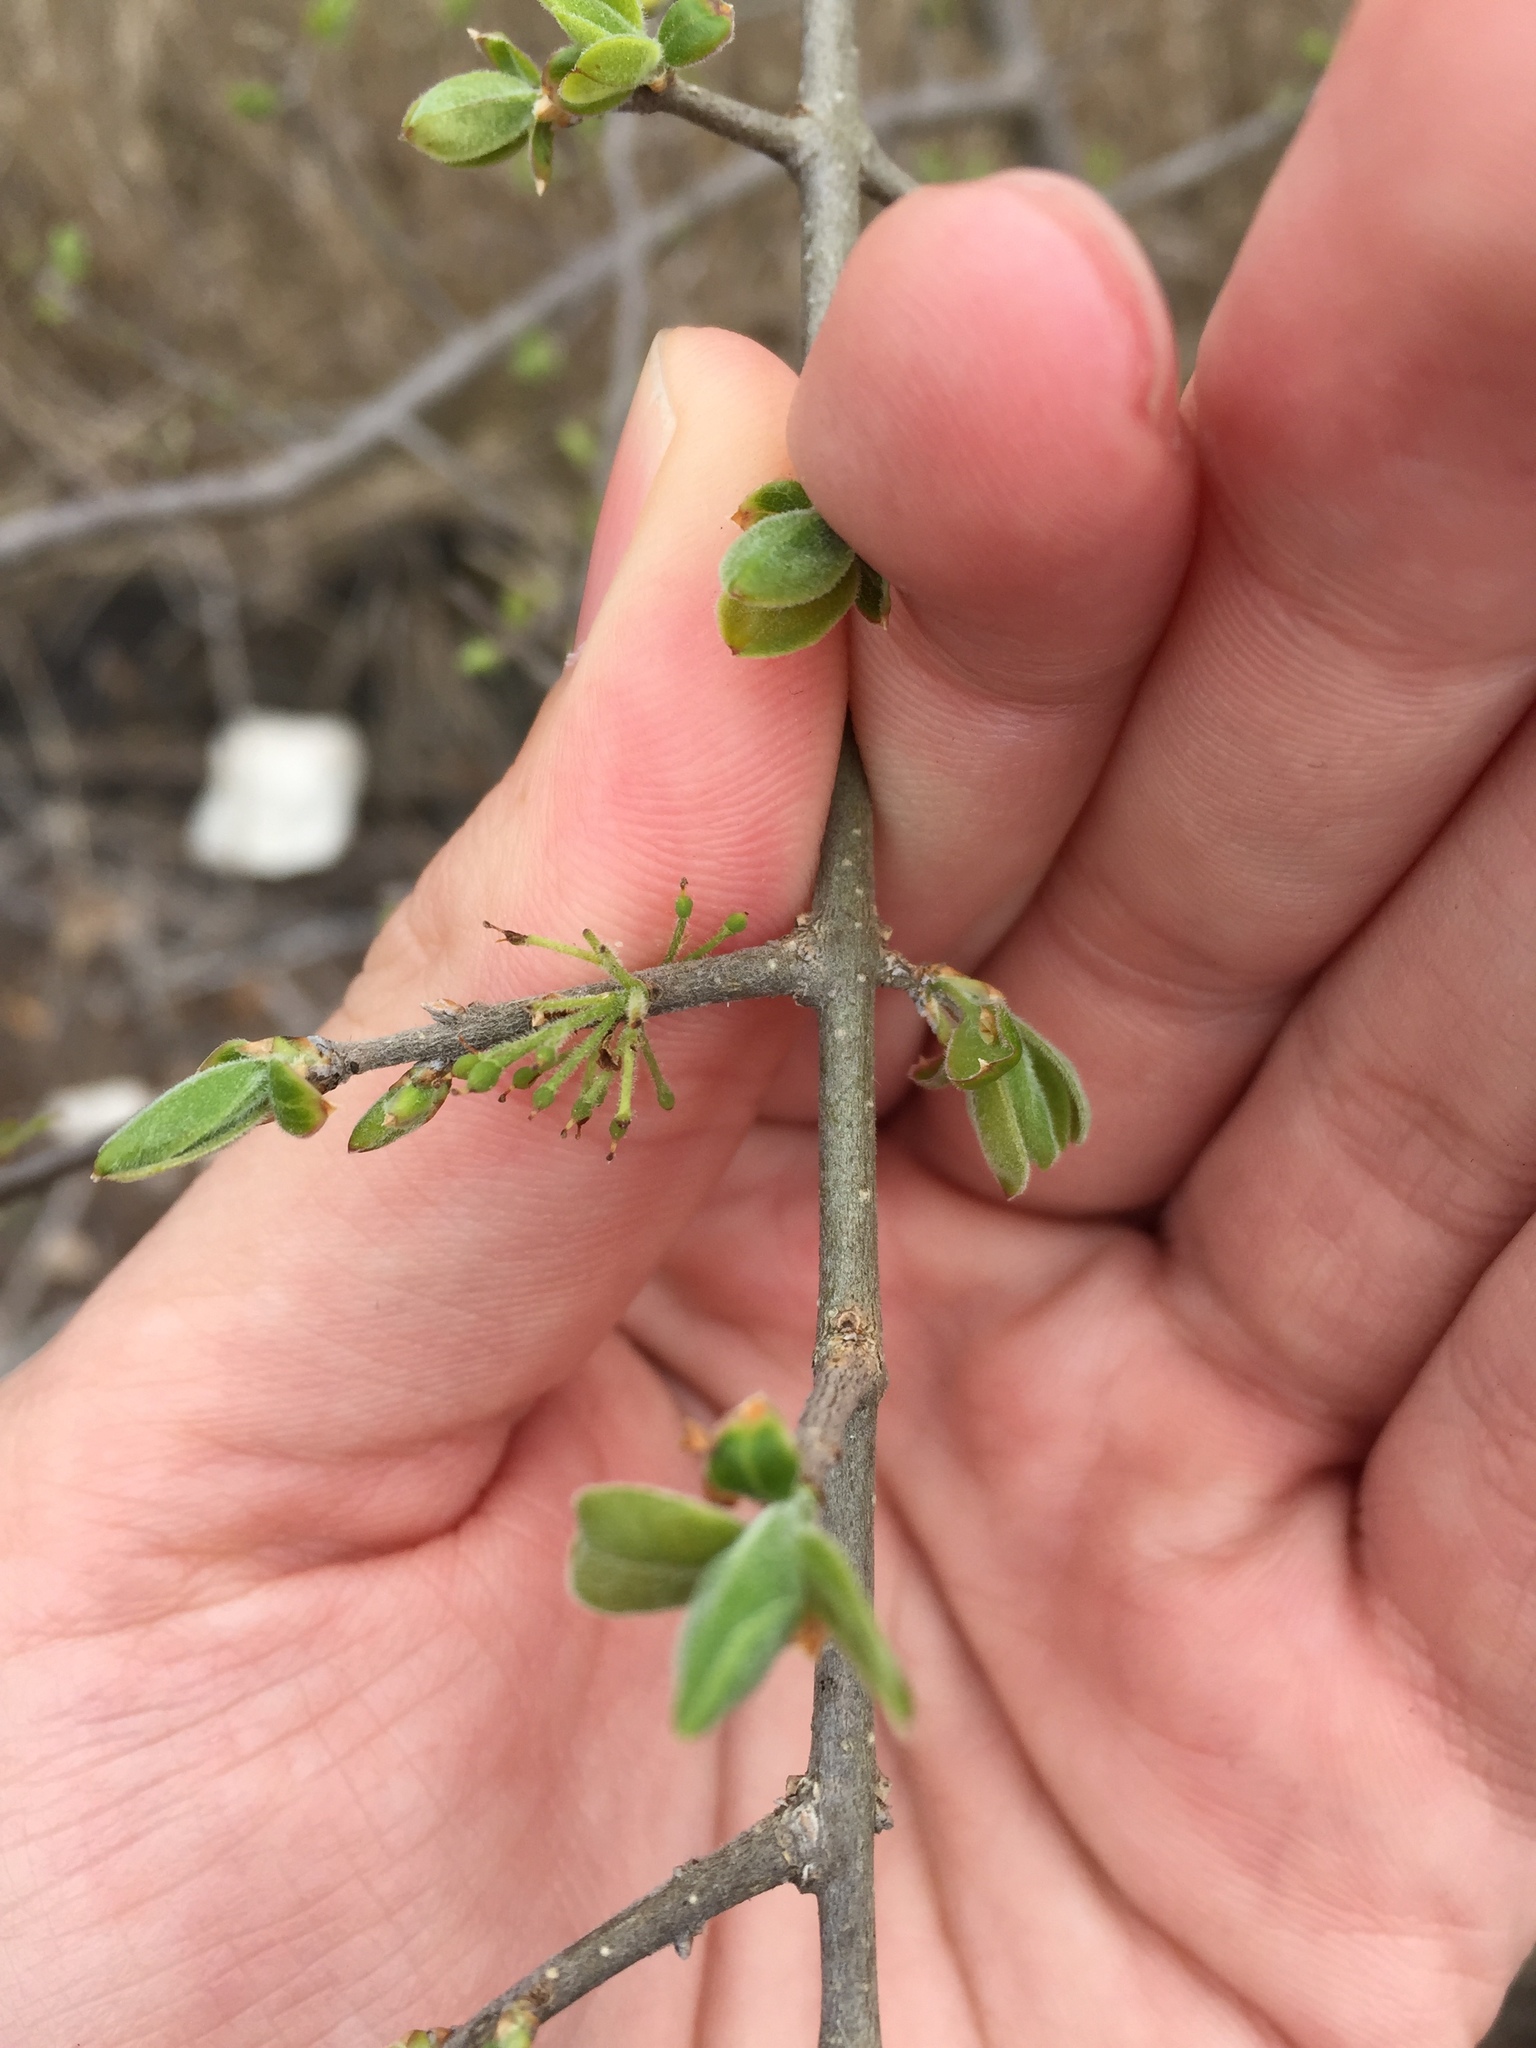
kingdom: Plantae
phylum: Tracheophyta
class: Magnoliopsida
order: Lamiales
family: Oleaceae
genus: Forestiera
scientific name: Forestiera pubescens
